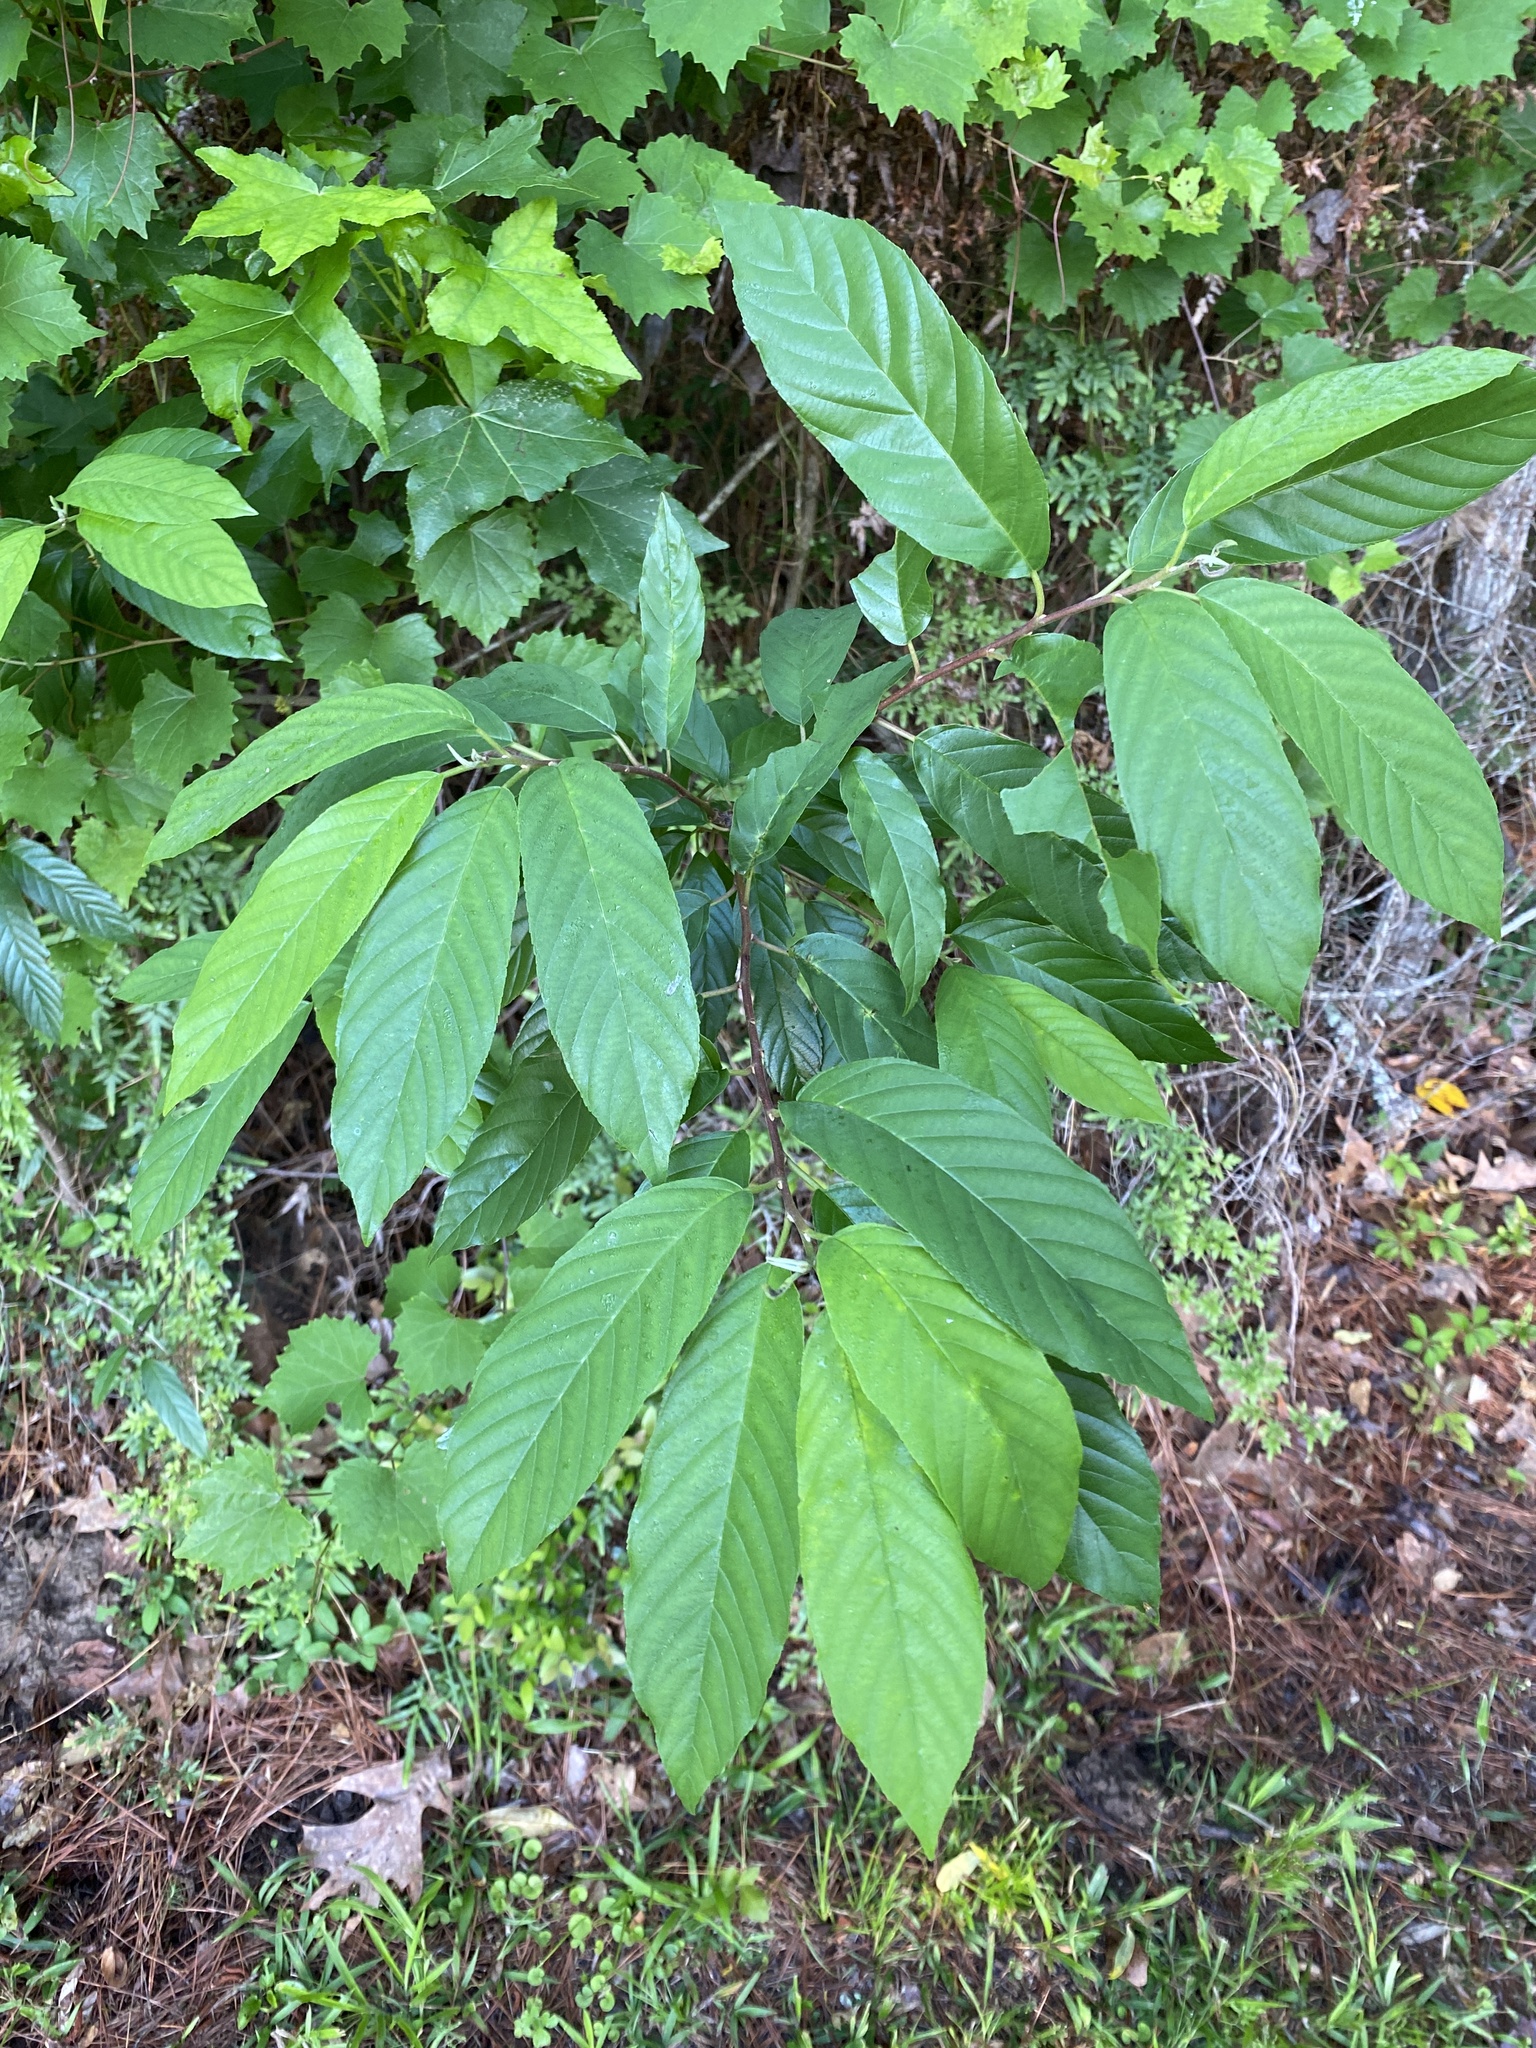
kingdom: Plantae
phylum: Tracheophyta
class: Magnoliopsida
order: Rosales
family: Rhamnaceae
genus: Frangula
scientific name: Frangula caroliniana
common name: Carolina buckthorn
